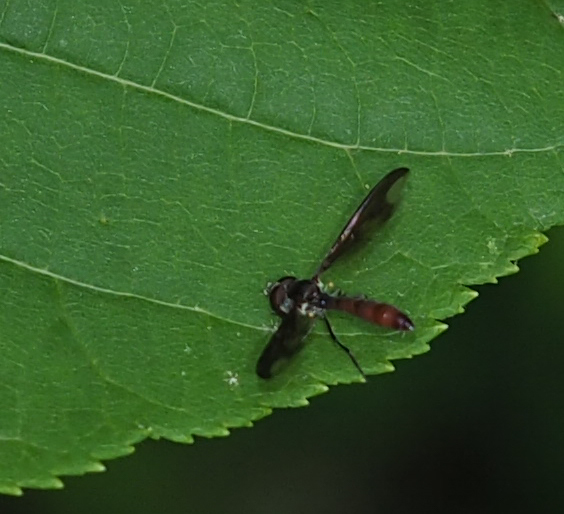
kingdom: Animalia
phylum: Arthropoda
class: Insecta
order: Diptera
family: Syrphidae
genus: Ocyptamus
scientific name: Ocyptamus fuscipennis
